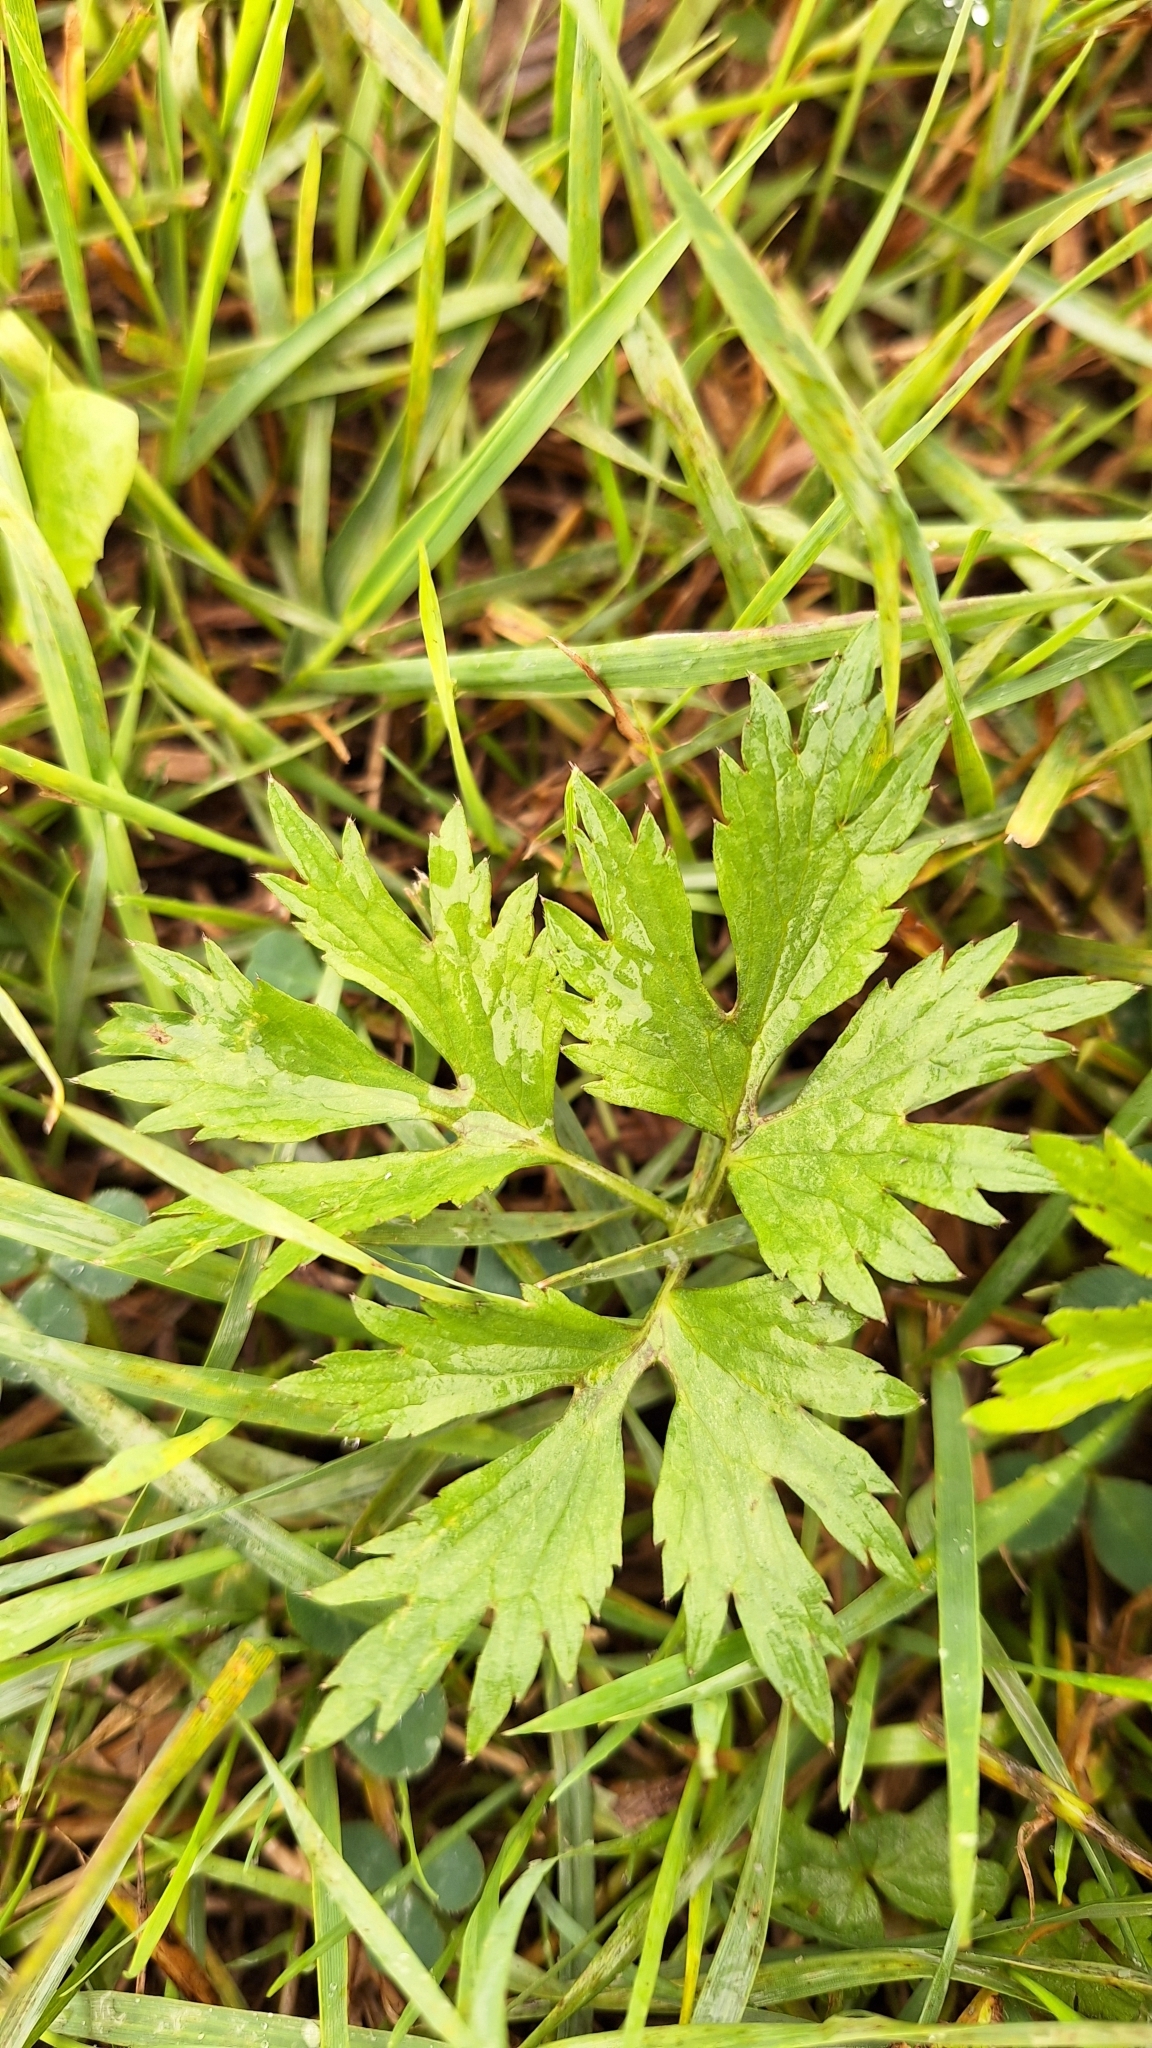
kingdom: Plantae
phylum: Tracheophyta
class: Magnoliopsida
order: Ranunculales
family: Ranunculaceae
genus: Ranunculus
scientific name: Ranunculus repens
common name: Creeping buttercup
